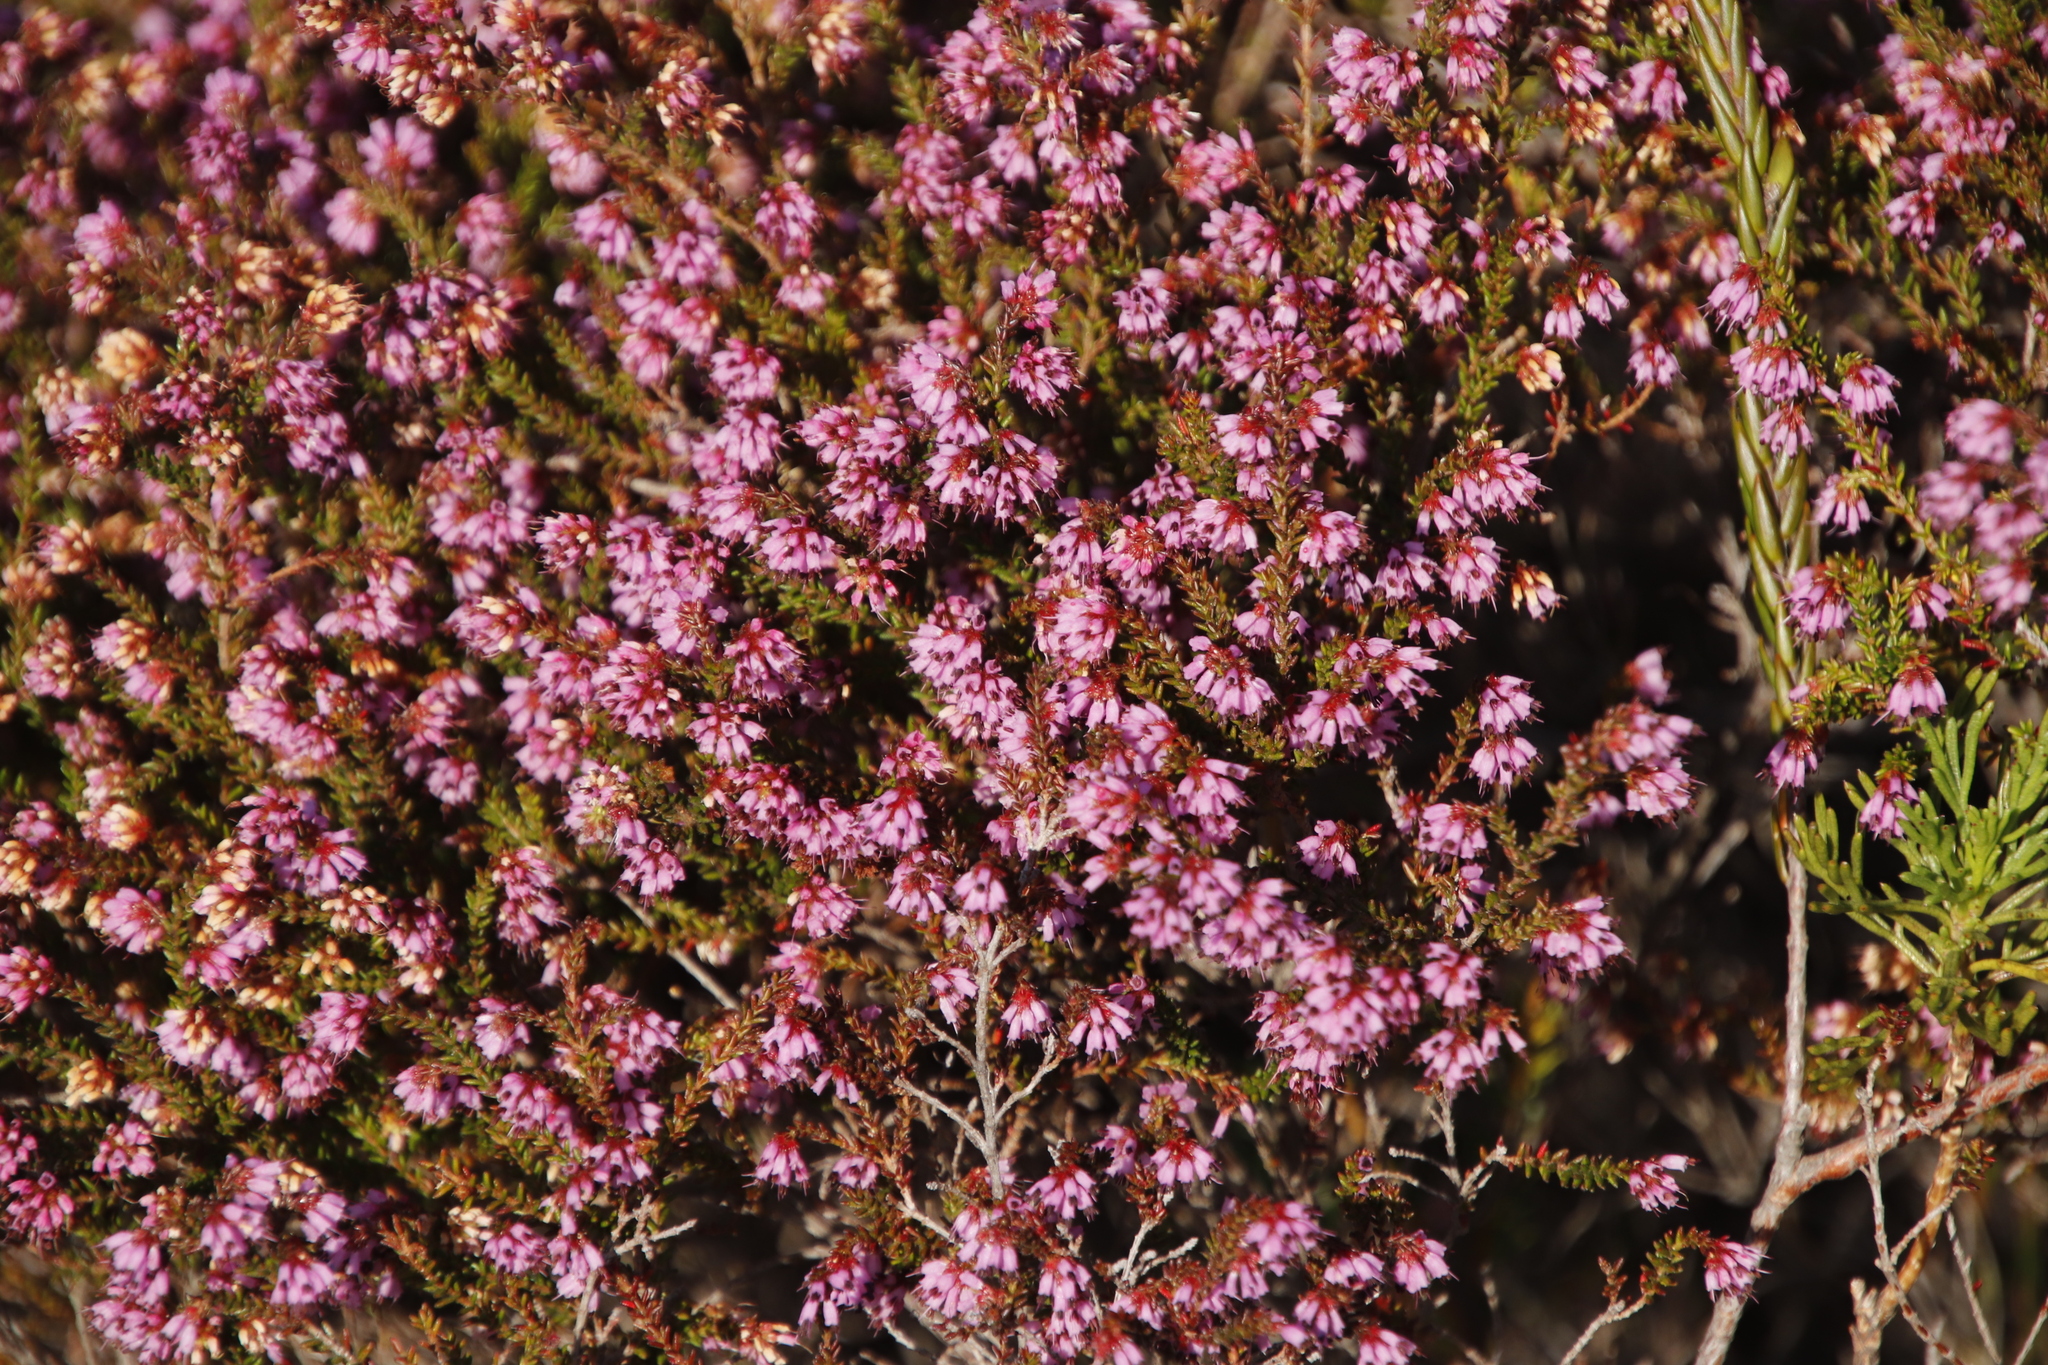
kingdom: Plantae
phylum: Tracheophyta
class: Magnoliopsida
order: Ericales
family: Ericaceae
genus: Erica
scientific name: Erica glabella
